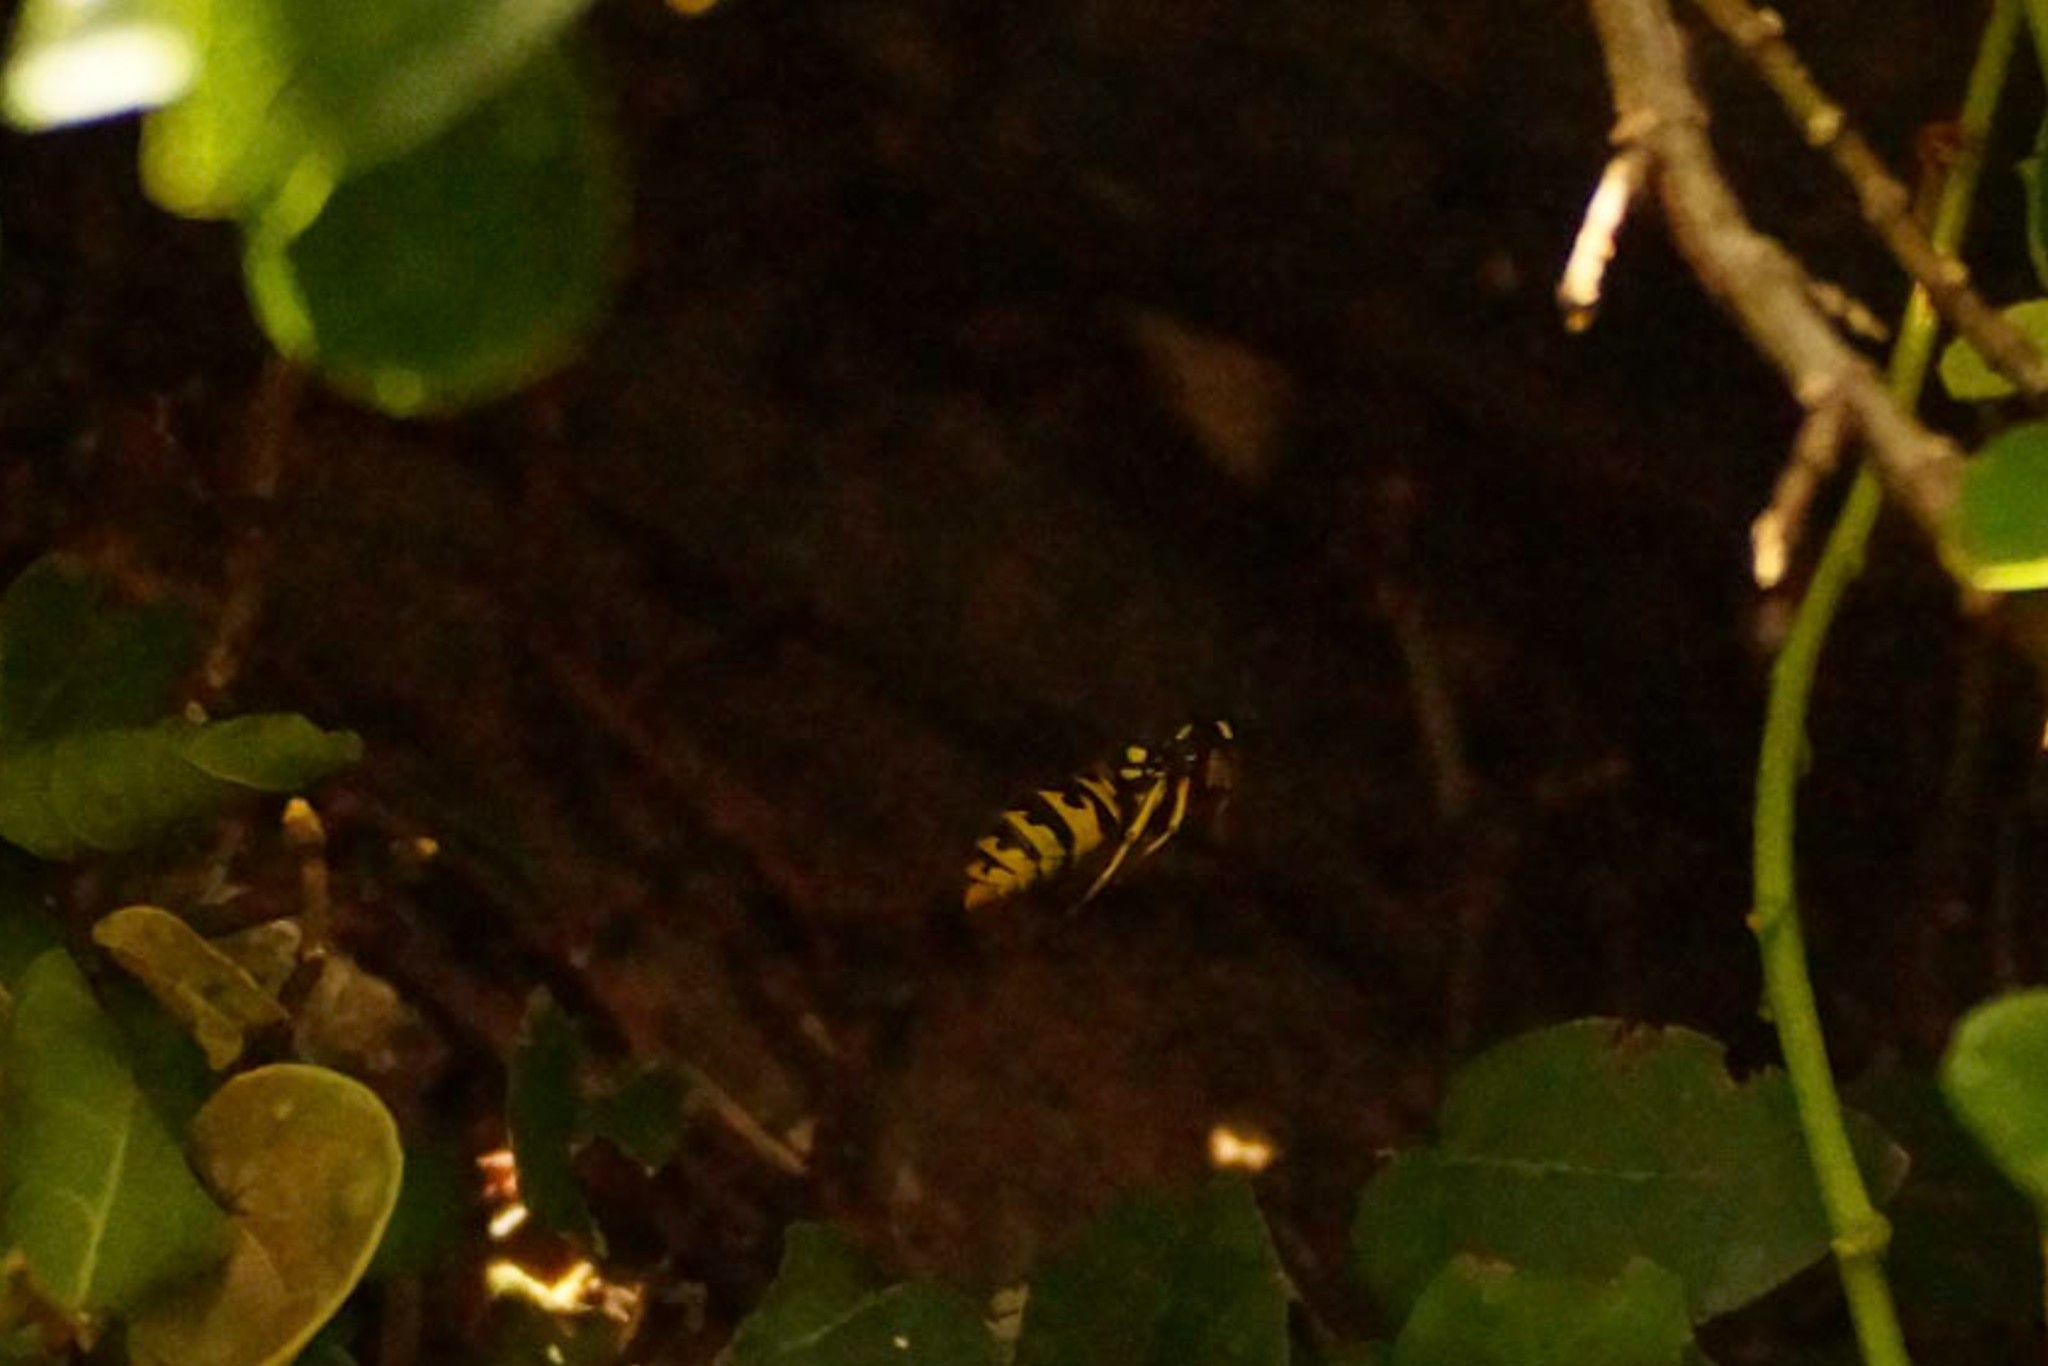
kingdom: Animalia
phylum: Arthropoda
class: Insecta
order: Hymenoptera
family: Vespidae
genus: Vespula
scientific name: Vespula germanica
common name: German wasp
